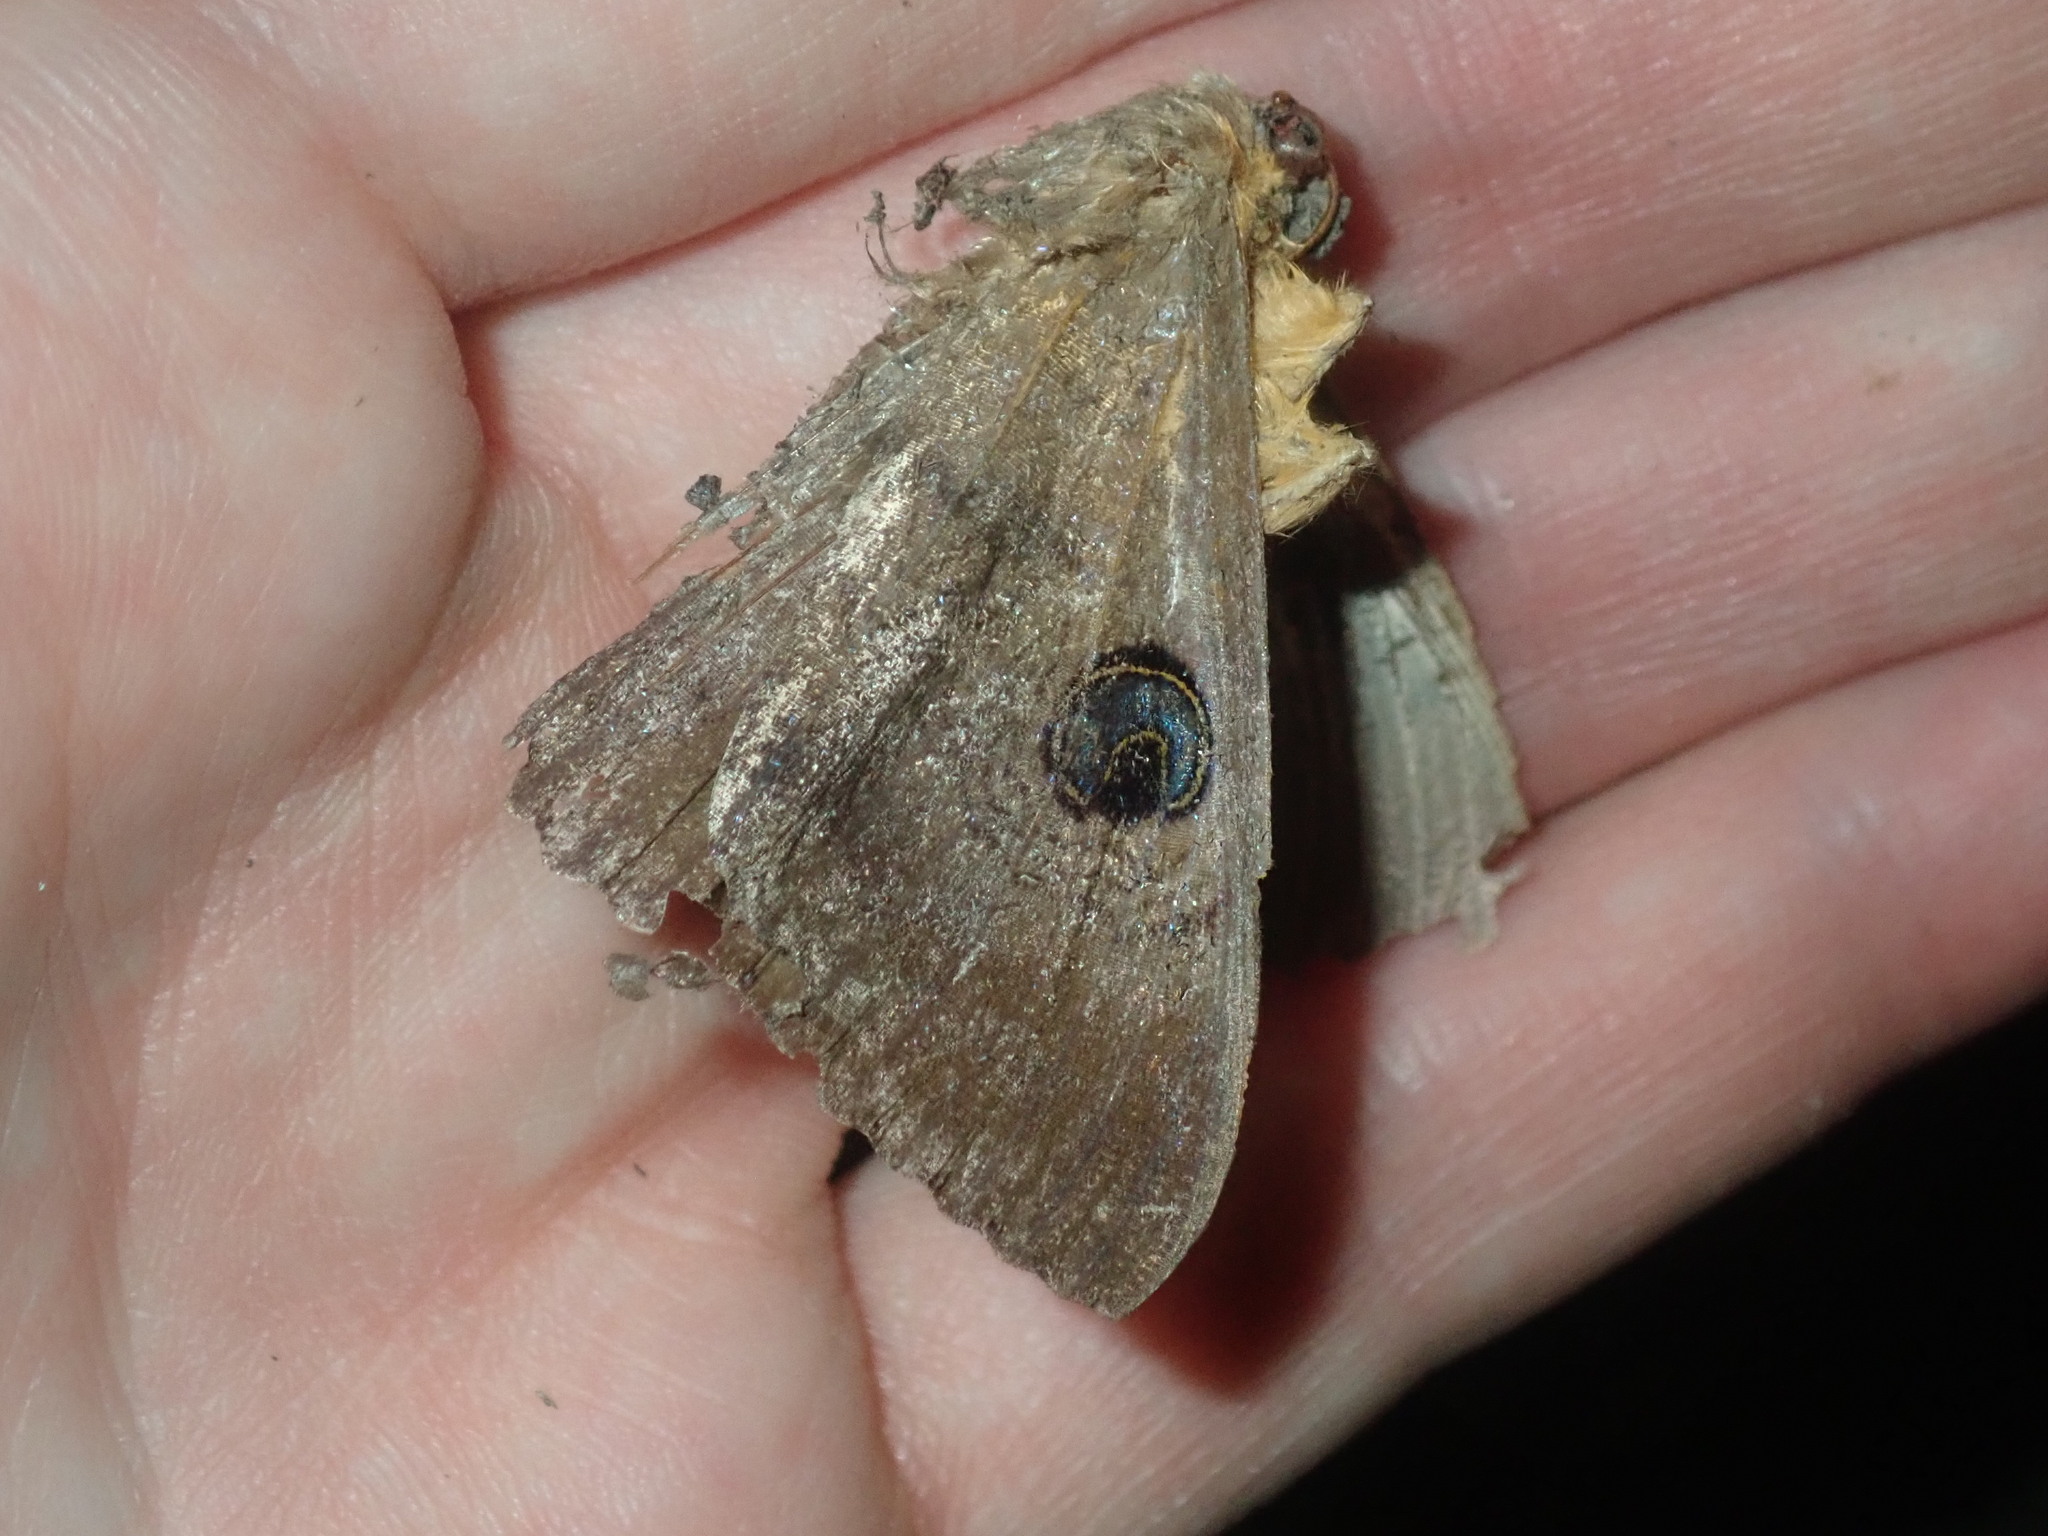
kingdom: Animalia
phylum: Arthropoda
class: Insecta
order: Lepidoptera
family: Erebidae
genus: Dasypodia
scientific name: Dasypodia selenophora
